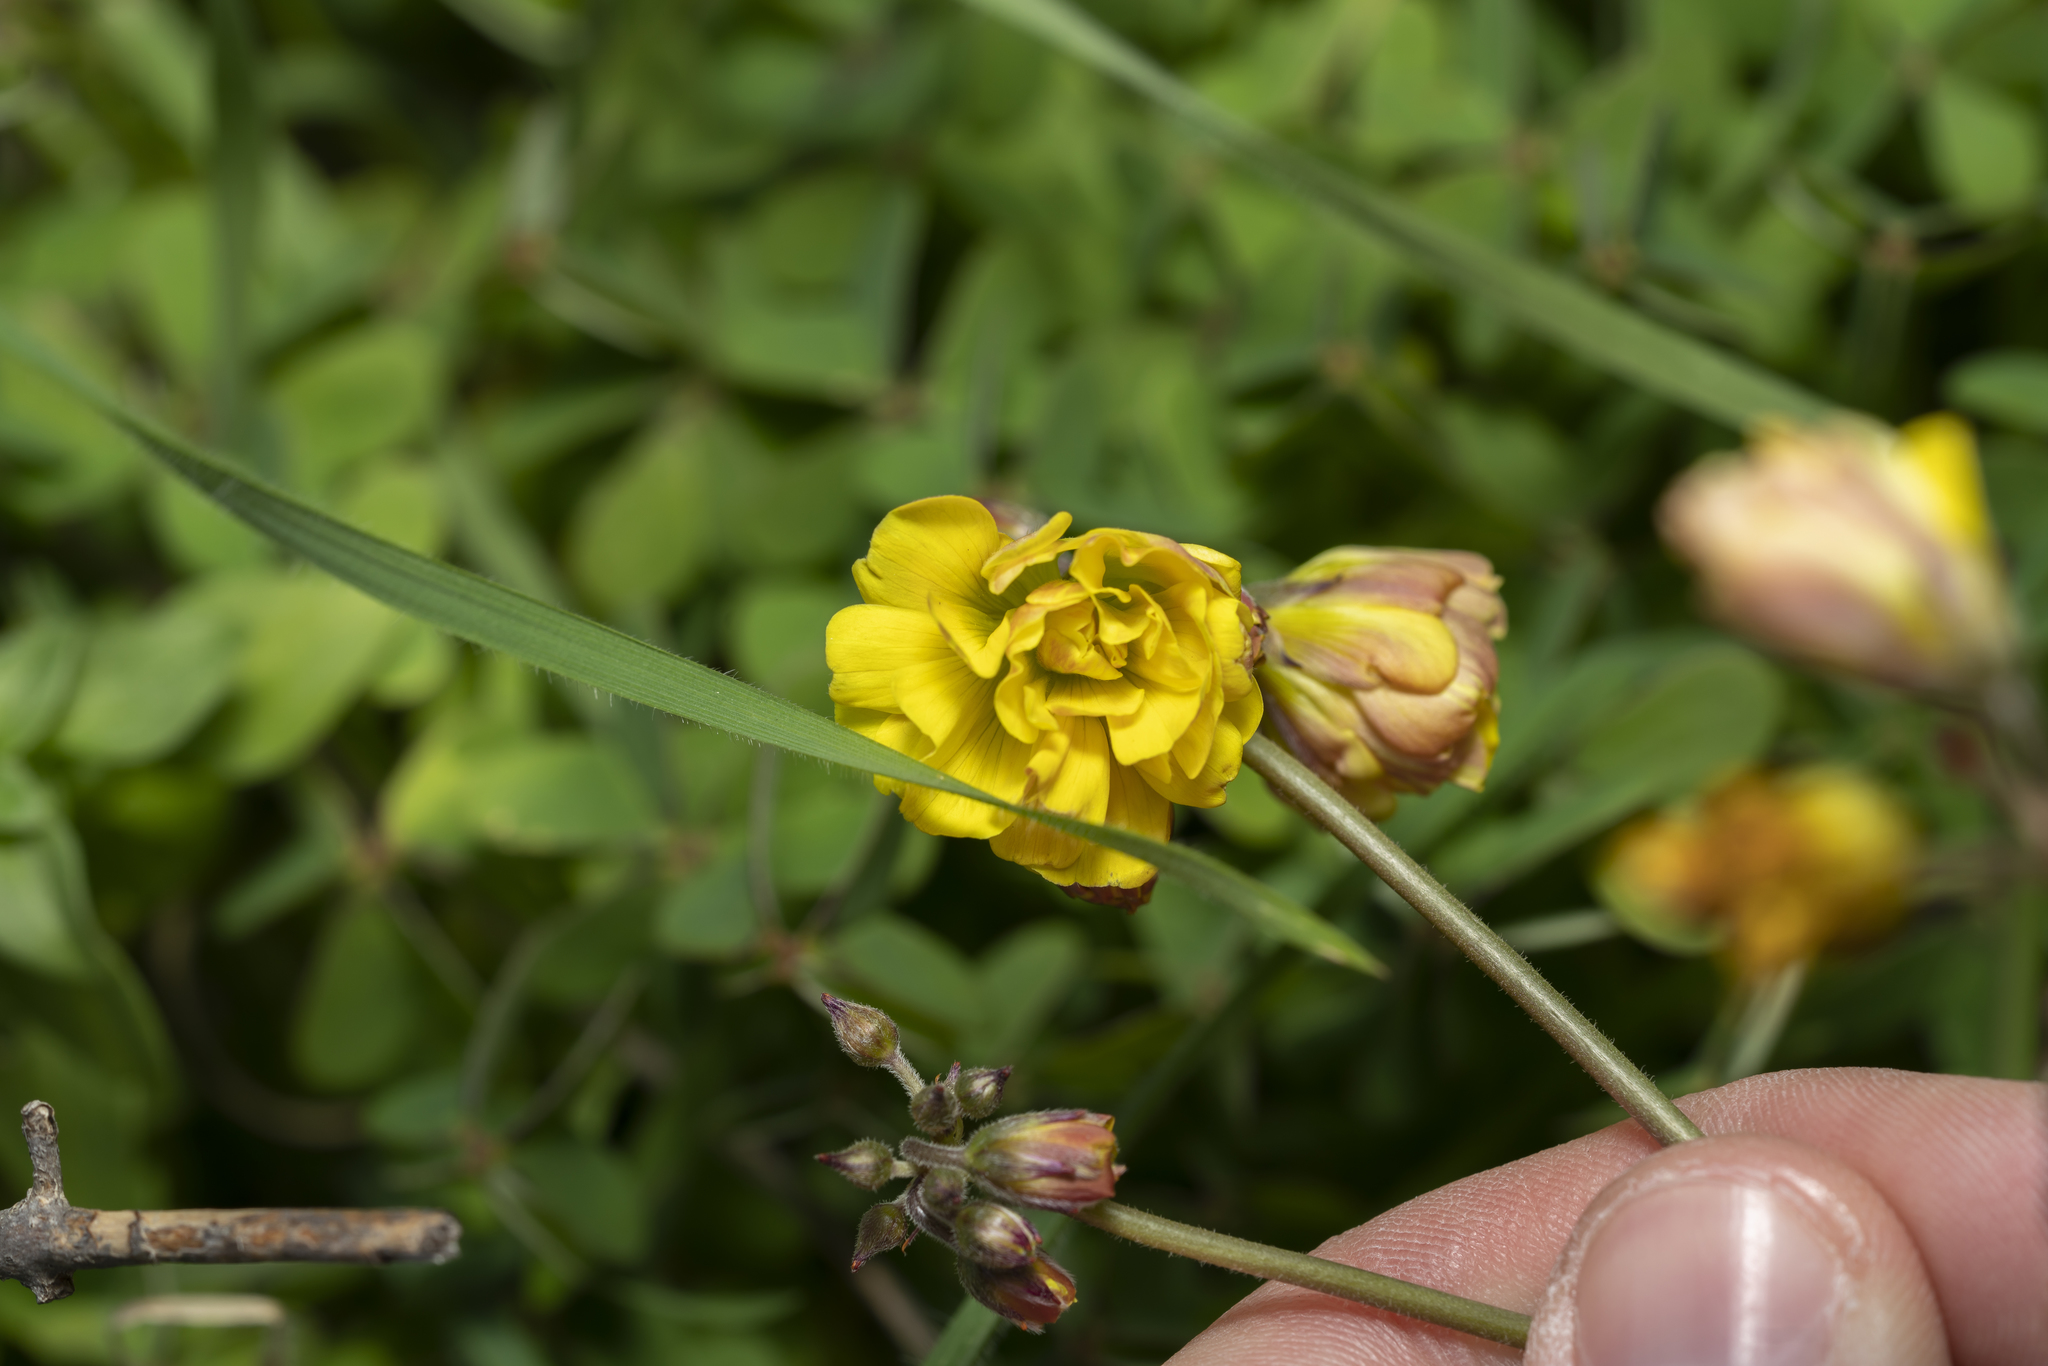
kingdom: Plantae
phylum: Tracheophyta
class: Magnoliopsida
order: Oxalidales
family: Oxalidaceae
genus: Oxalis
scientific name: Oxalis pes-caprae
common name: Bermuda-buttercup
